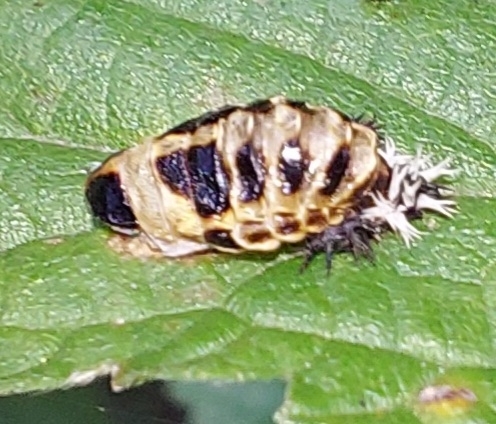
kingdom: Animalia
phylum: Arthropoda
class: Insecta
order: Coleoptera
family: Coccinellidae
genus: Harmonia
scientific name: Harmonia axyridis
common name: Harlequin ladybird
